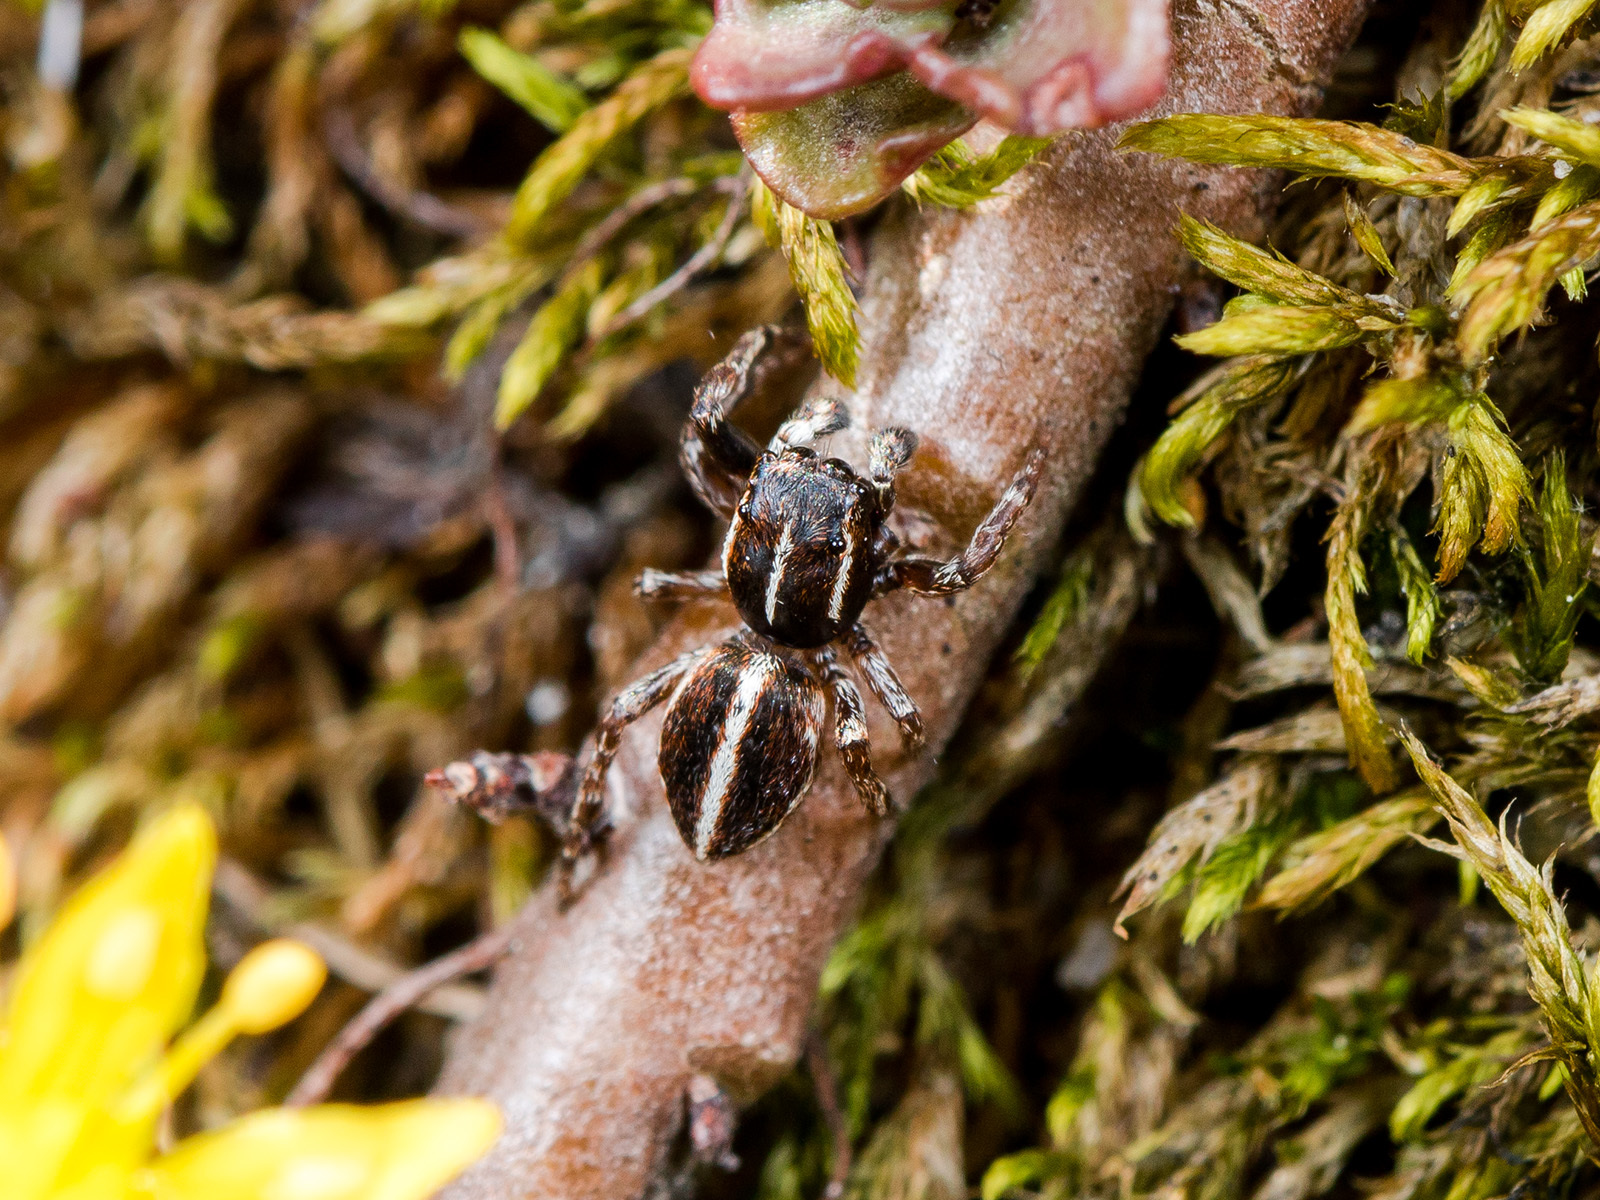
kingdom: Animalia
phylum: Arthropoda
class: Arachnida
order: Araneae
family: Salticidae
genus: Attulus
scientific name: Attulus monstrabilis
